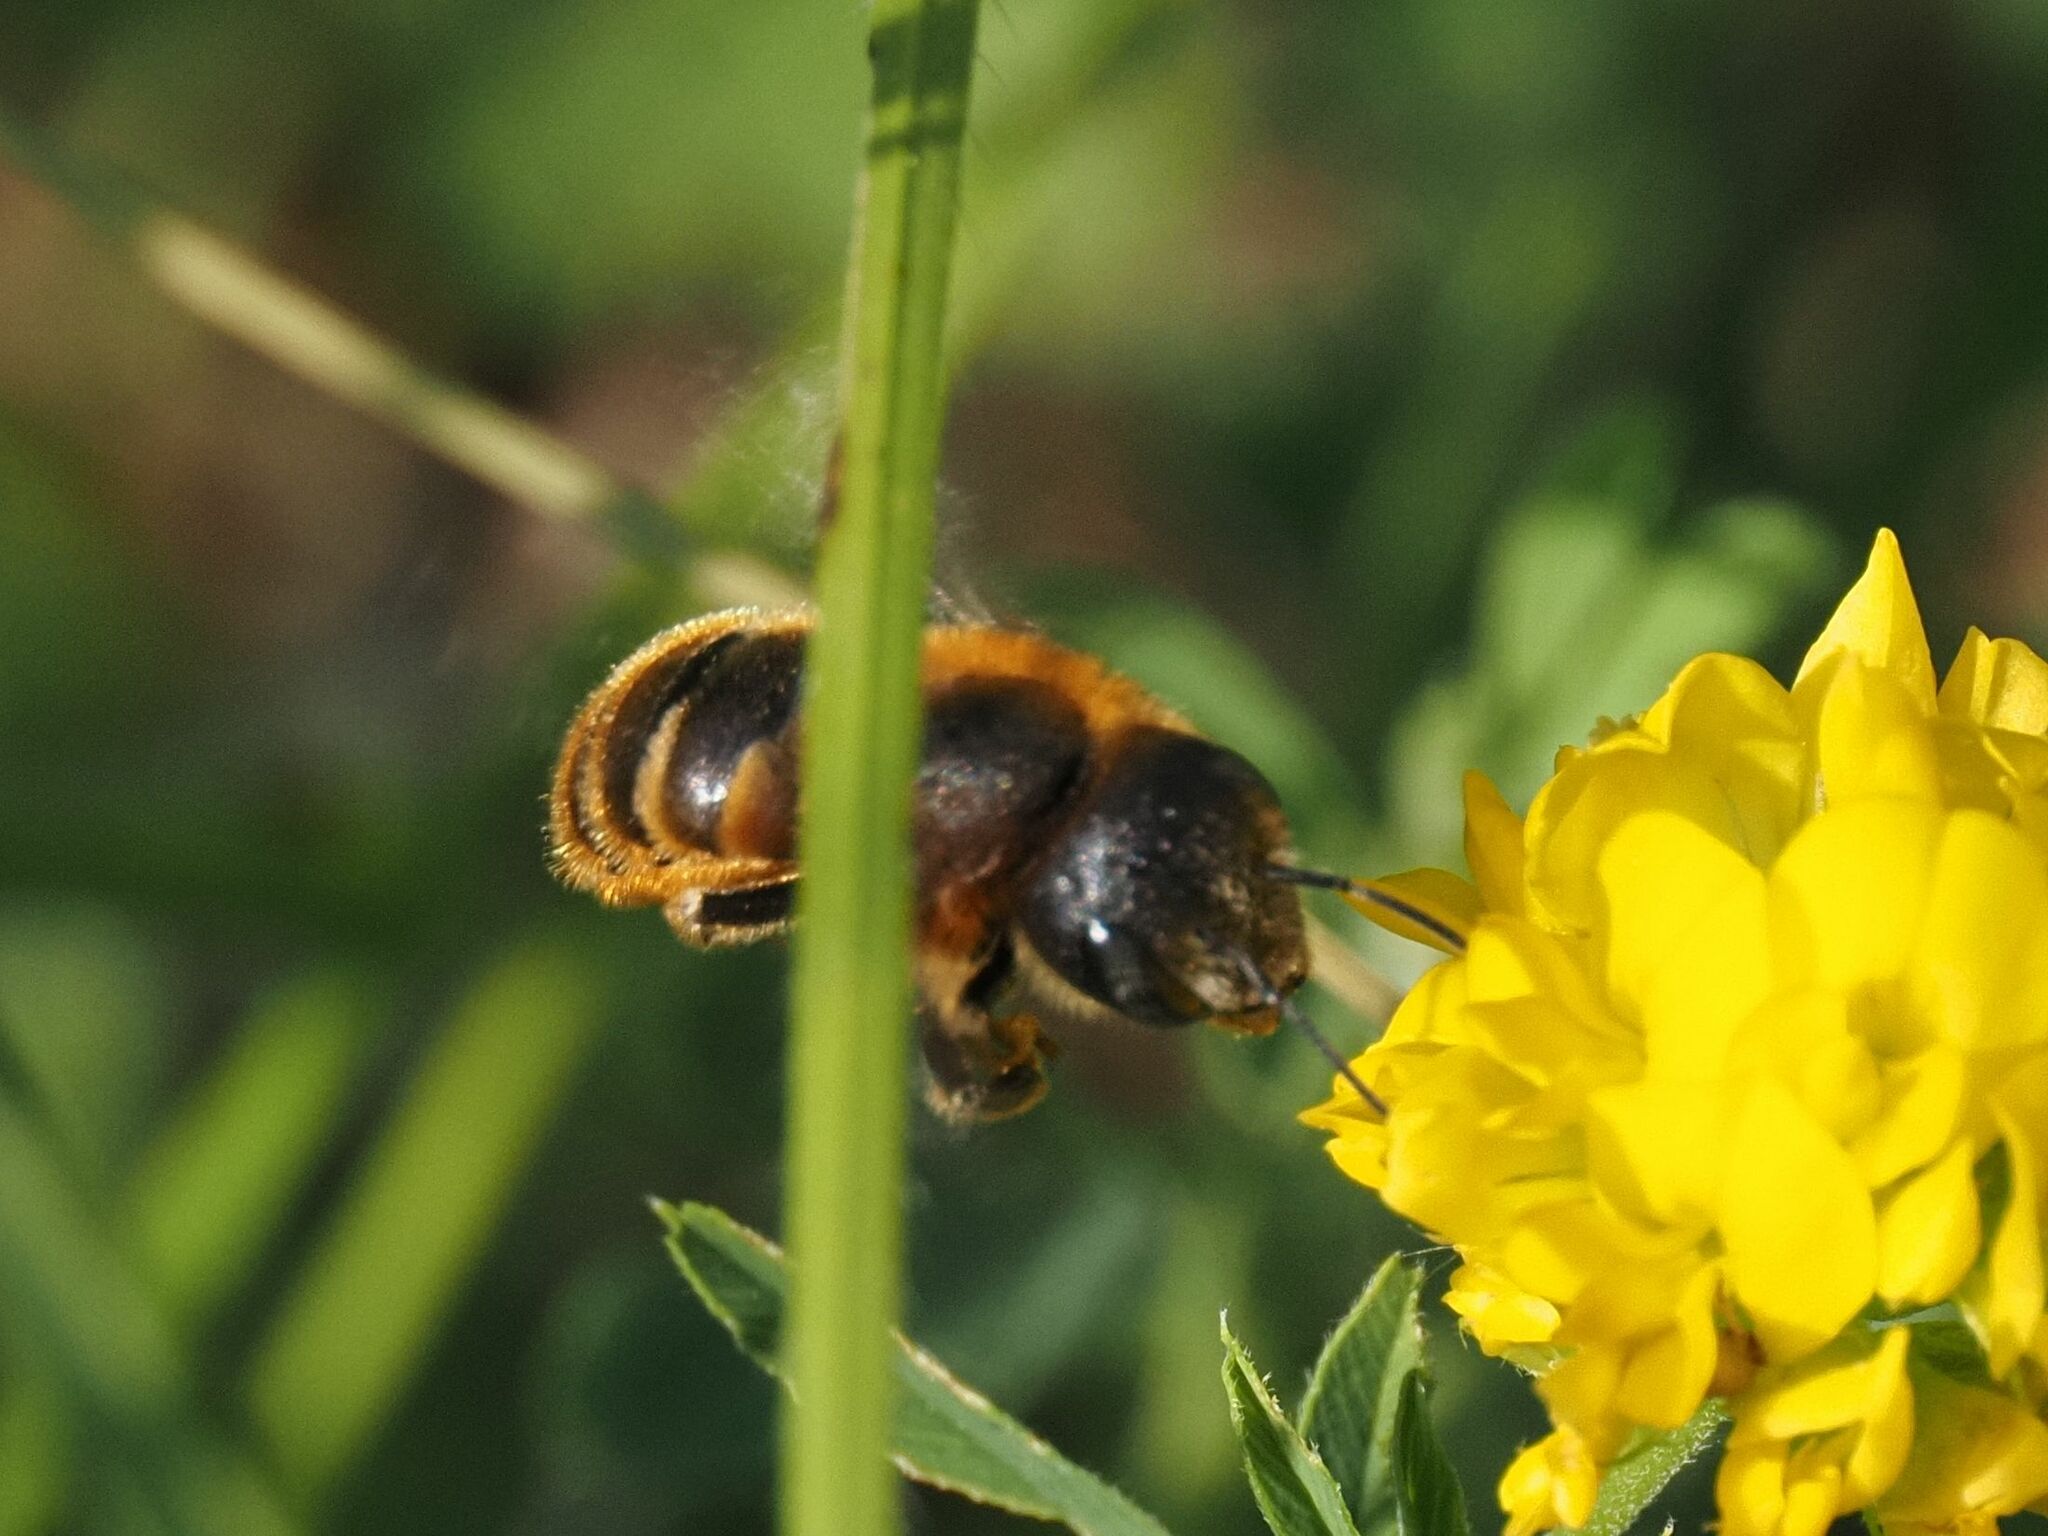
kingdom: Animalia
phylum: Arthropoda
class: Insecta
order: Hymenoptera
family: Megachilidae
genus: Osmia
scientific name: Osmia aurulenta
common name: Gold-fringed mason bee
